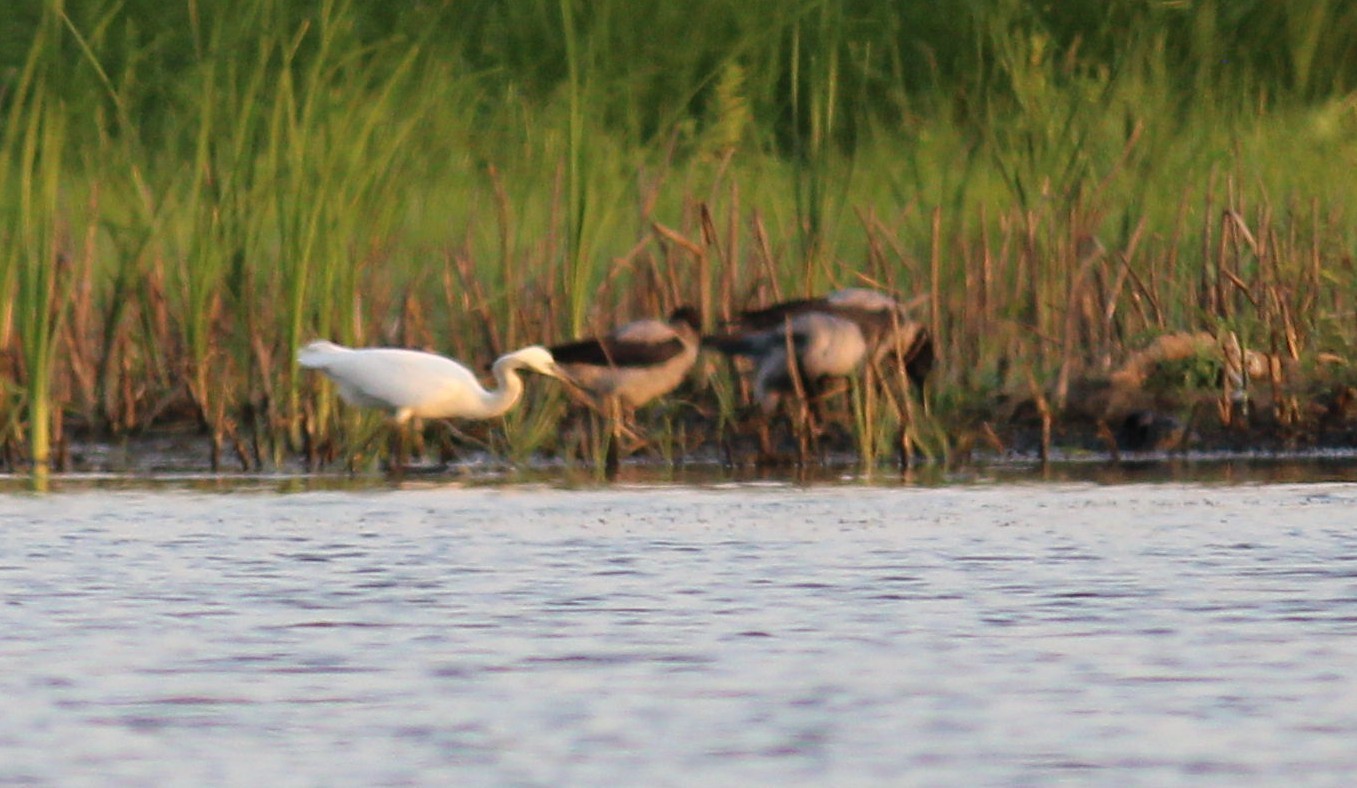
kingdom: Animalia
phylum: Chordata
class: Aves
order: Passeriformes
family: Corvidae
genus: Corvus
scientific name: Corvus cornix
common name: Hooded crow
